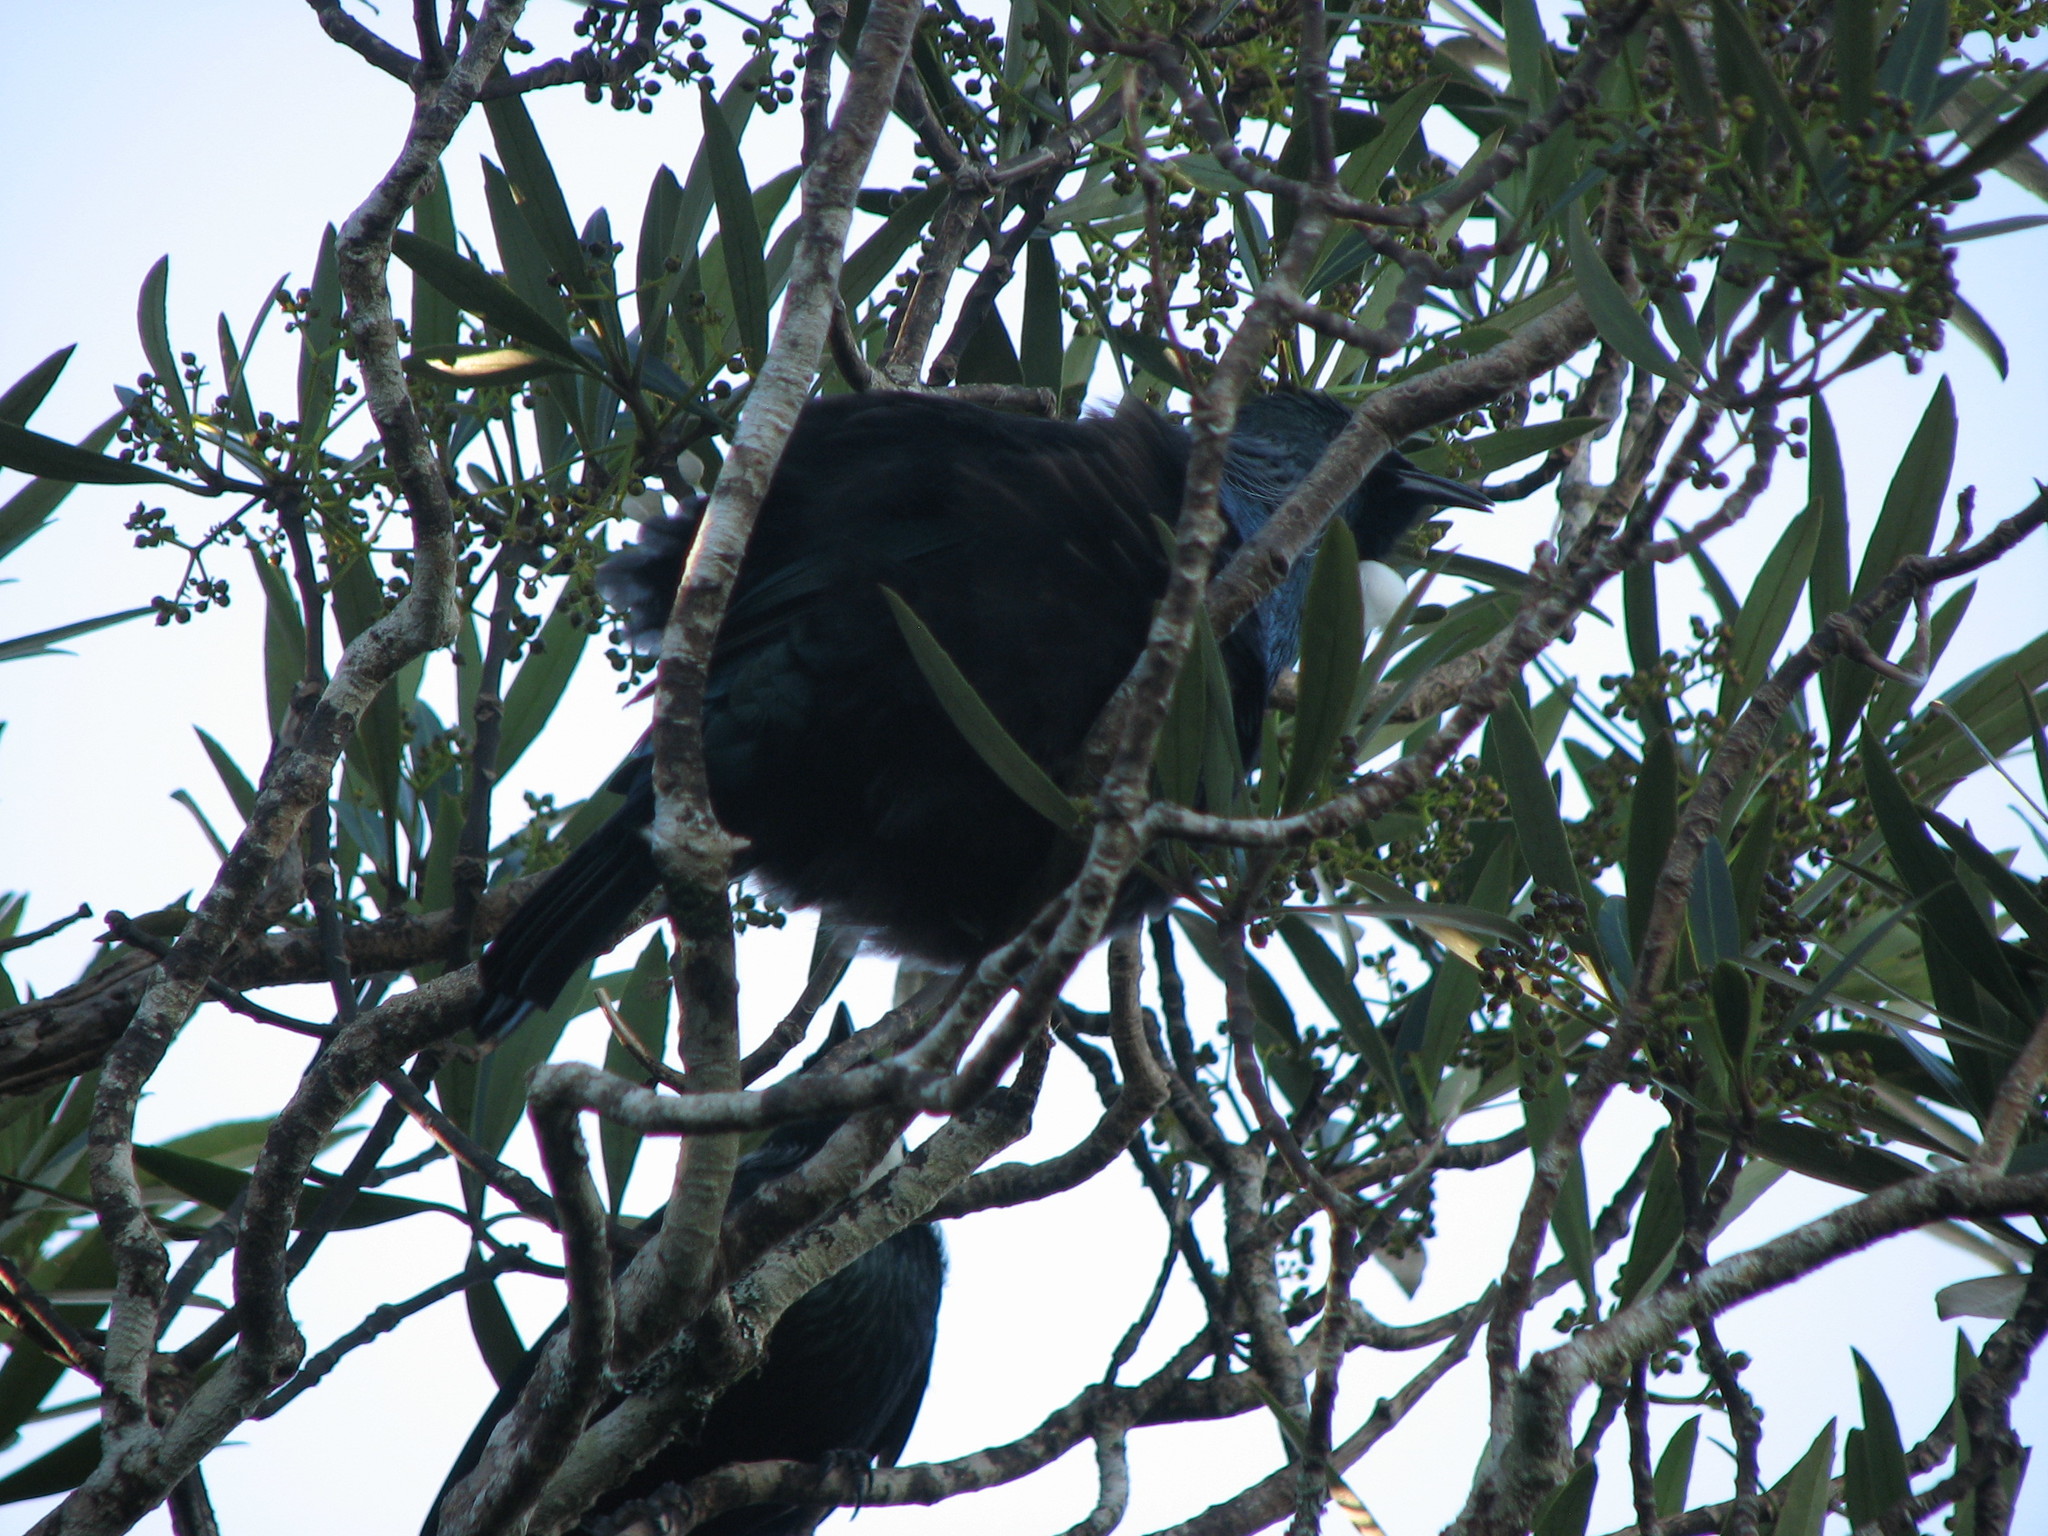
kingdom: Animalia
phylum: Chordata
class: Aves
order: Passeriformes
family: Meliphagidae
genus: Prosthemadera
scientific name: Prosthemadera novaeseelandiae
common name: Tui
